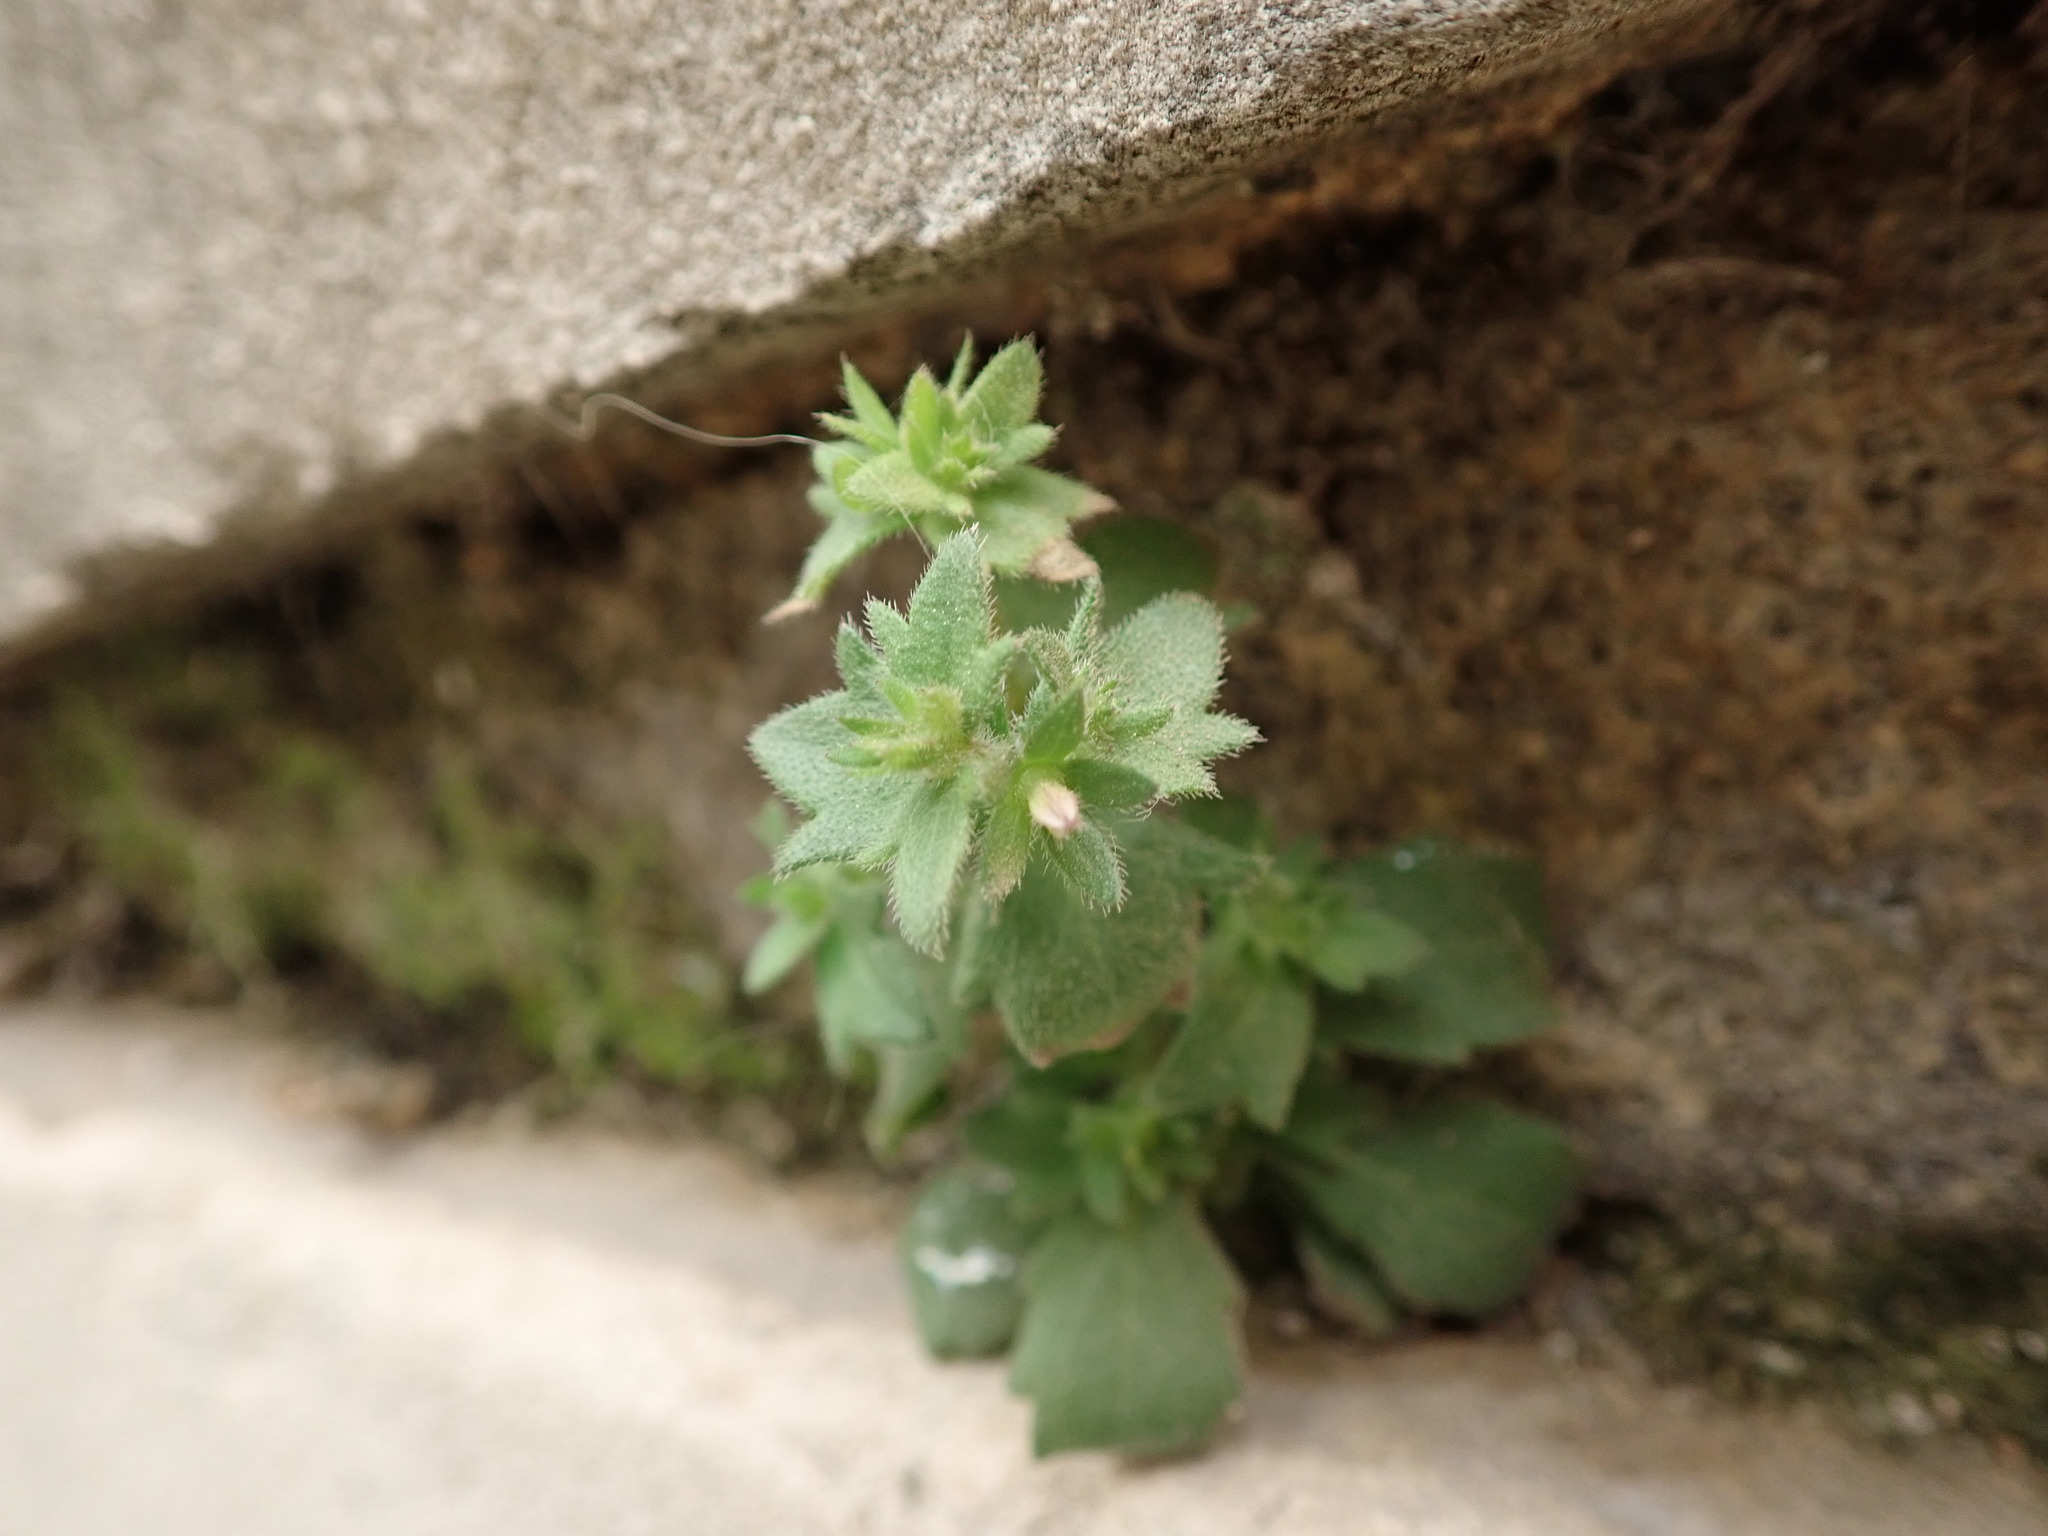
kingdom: Plantae
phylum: Tracheophyta
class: Magnoliopsida
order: Asterales
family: Campanulaceae
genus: Campanula
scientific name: Campanula erinus
